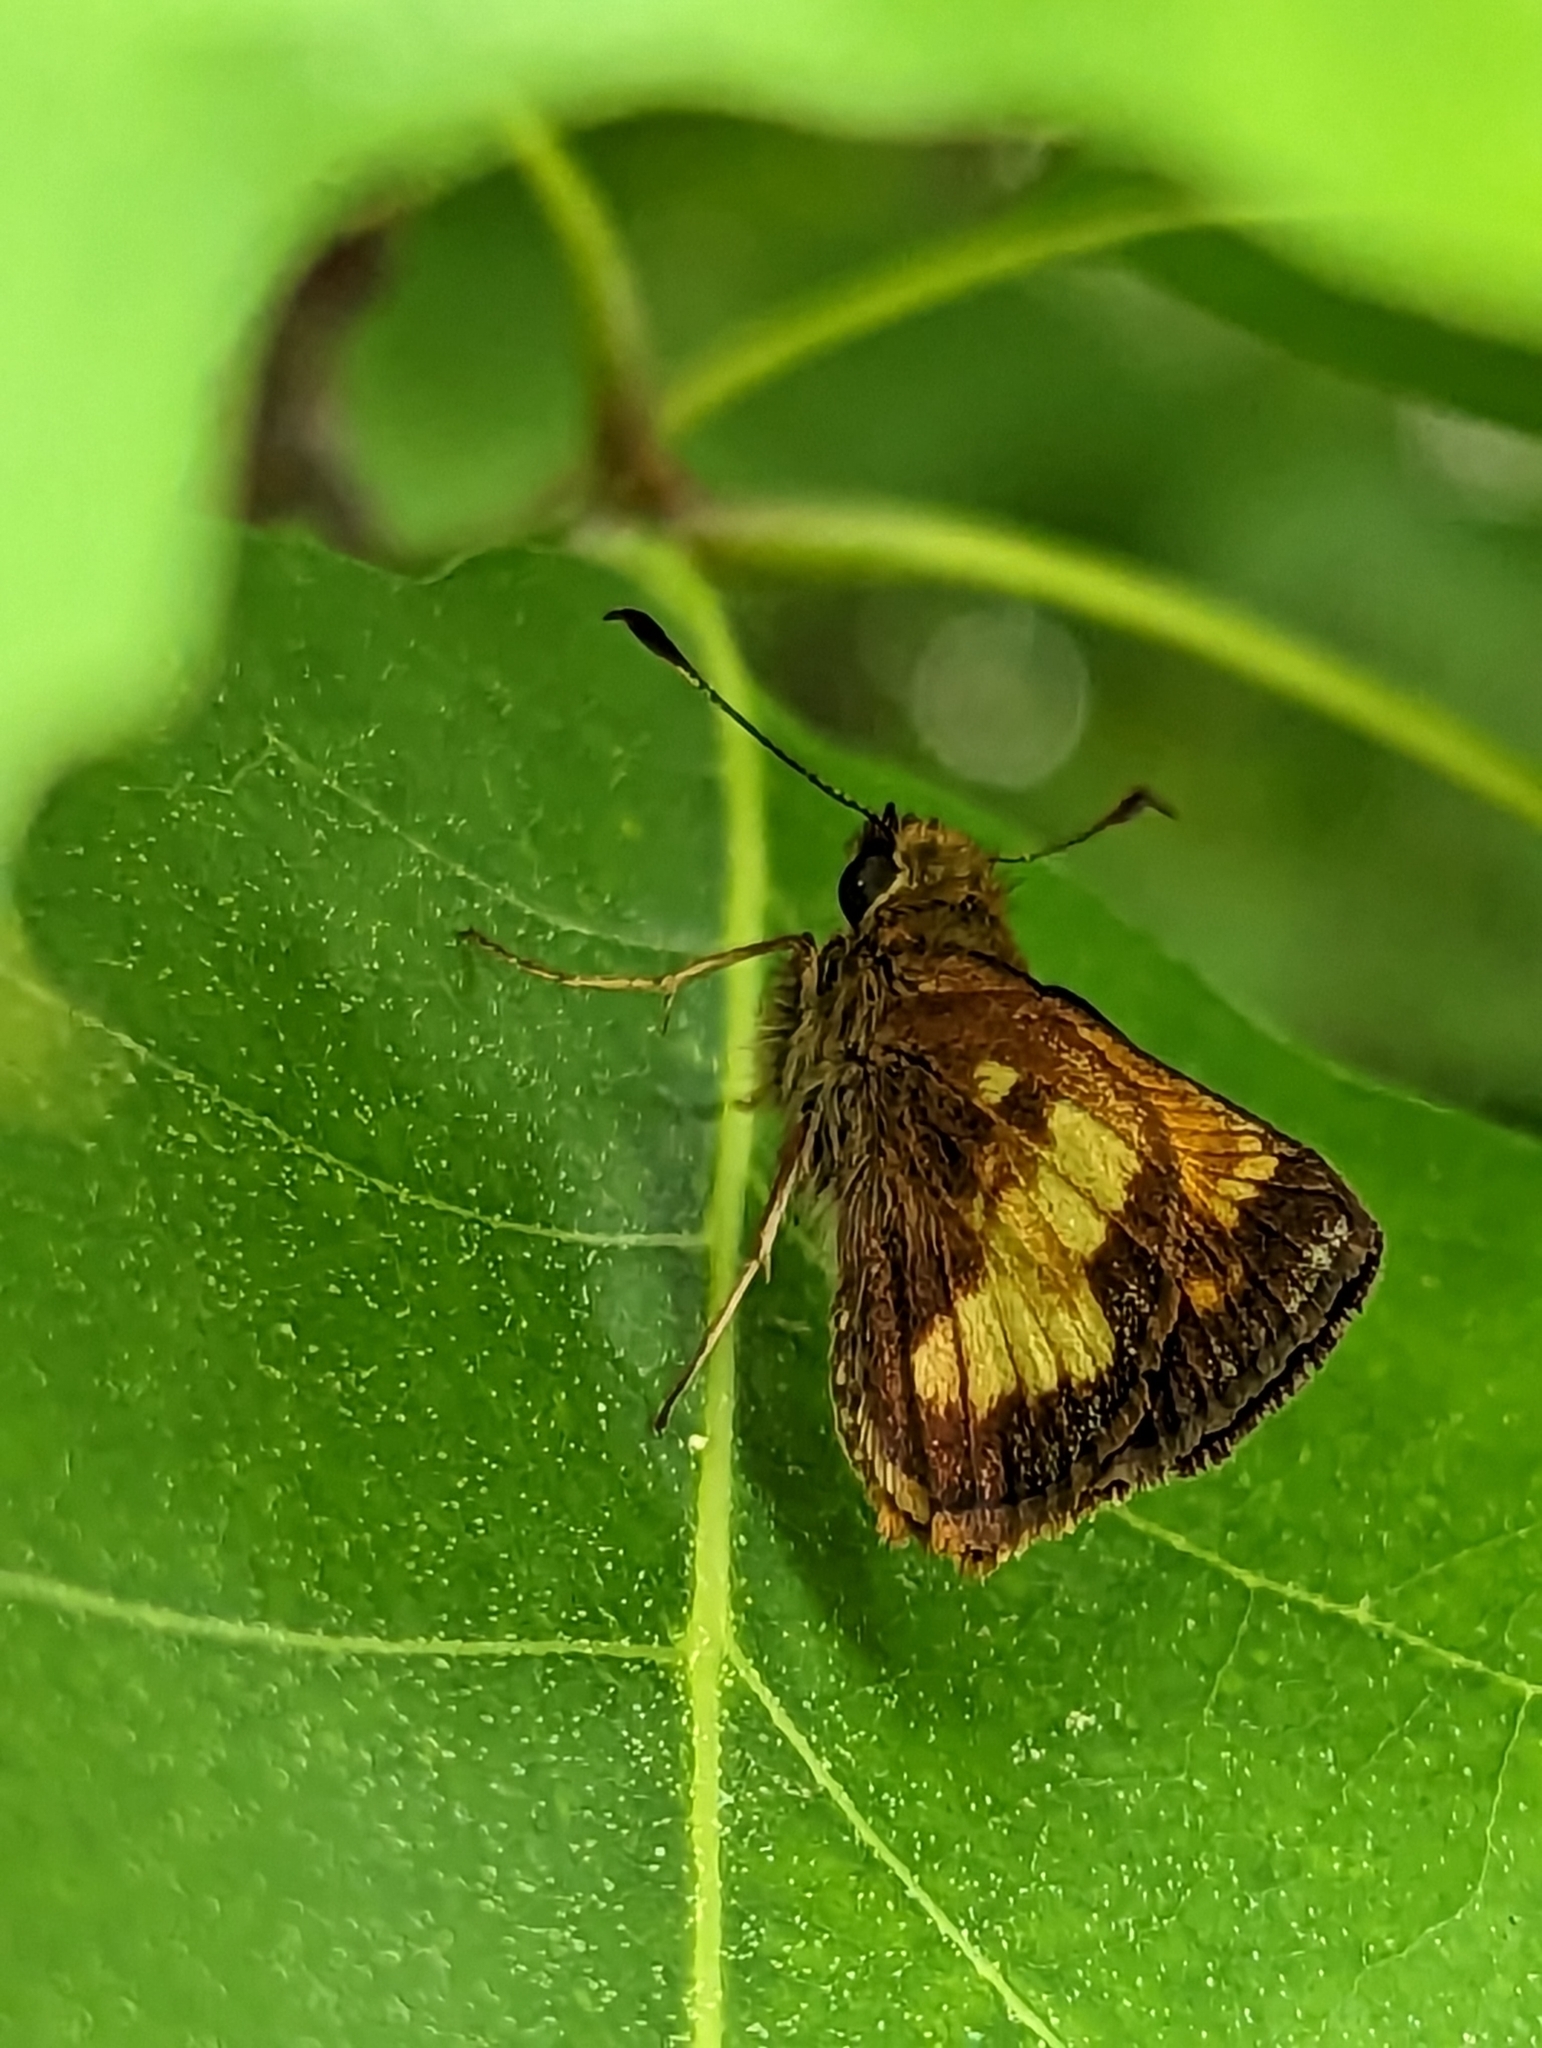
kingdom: Animalia
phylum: Arthropoda
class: Insecta
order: Lepidoptera
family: Hesperiidae
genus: Lon
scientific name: Lon hobomok
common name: Hobomok skipper
